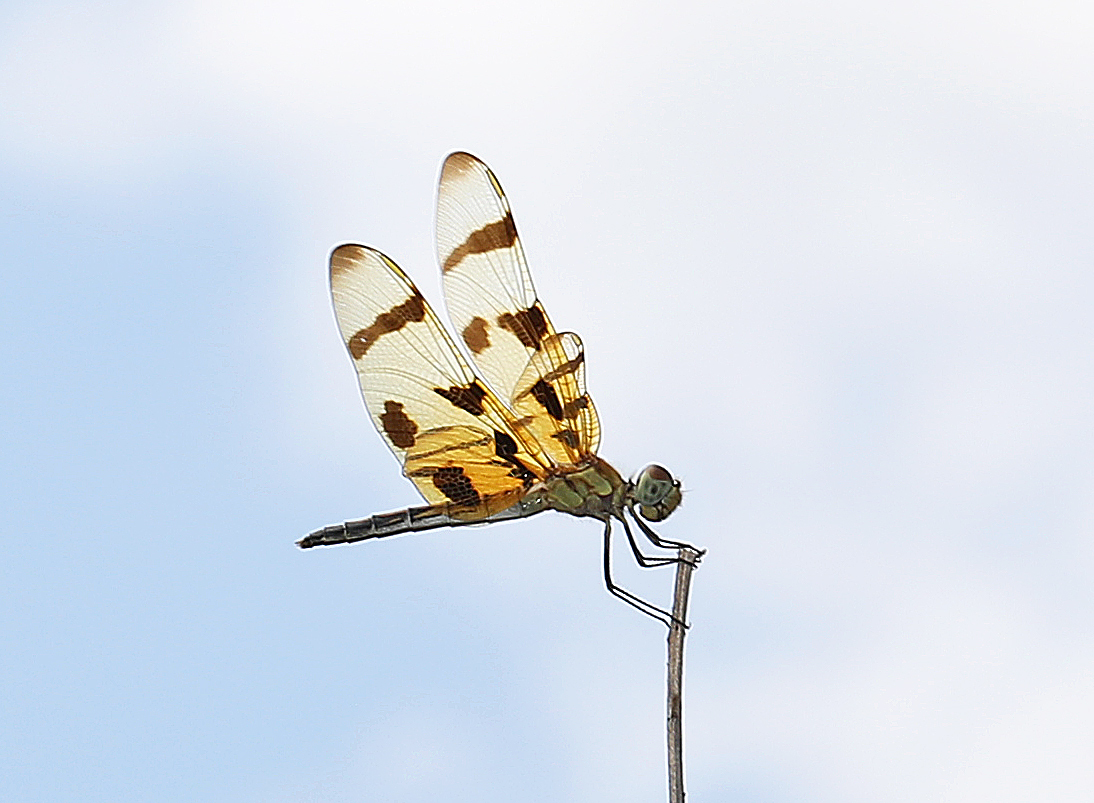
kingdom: Animalia
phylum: Arthropoda
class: Insecta
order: Odonata
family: Libellulidae
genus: Celithemis
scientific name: Celithemis eponina
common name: Halloween pennant
